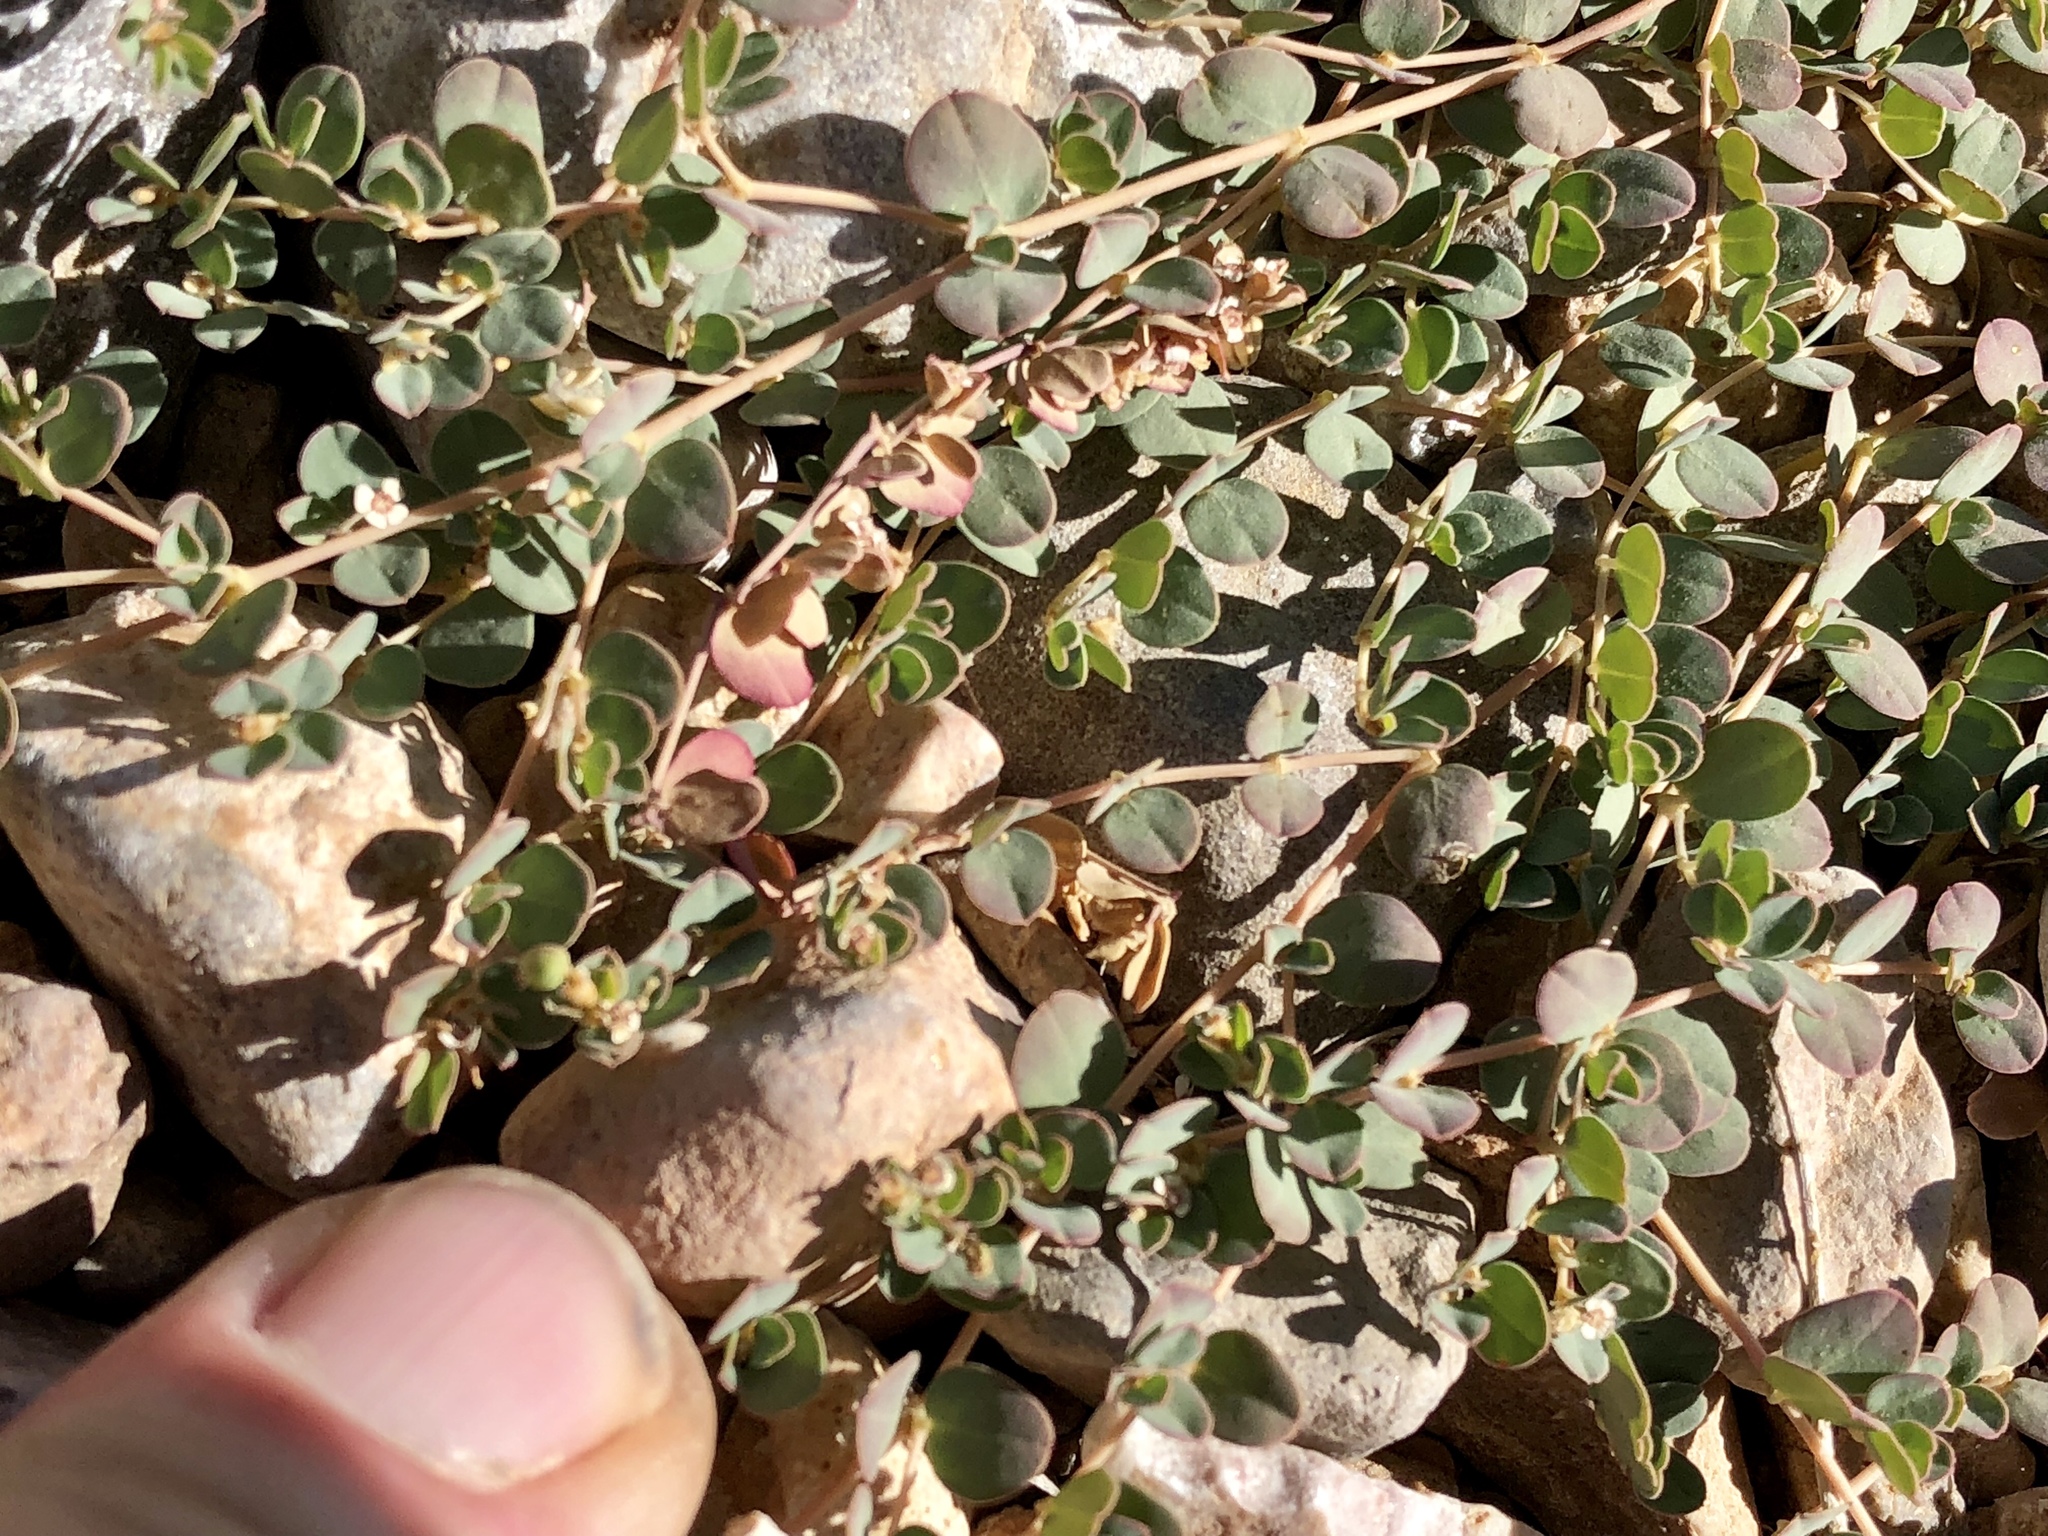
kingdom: Plantae
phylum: Tracheophyta
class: Magnoliopsida
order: Malpighiales
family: Euphorbiaceae
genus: Euphorbia
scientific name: Euphorbia albomarginata
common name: Whitemargin sandmat
